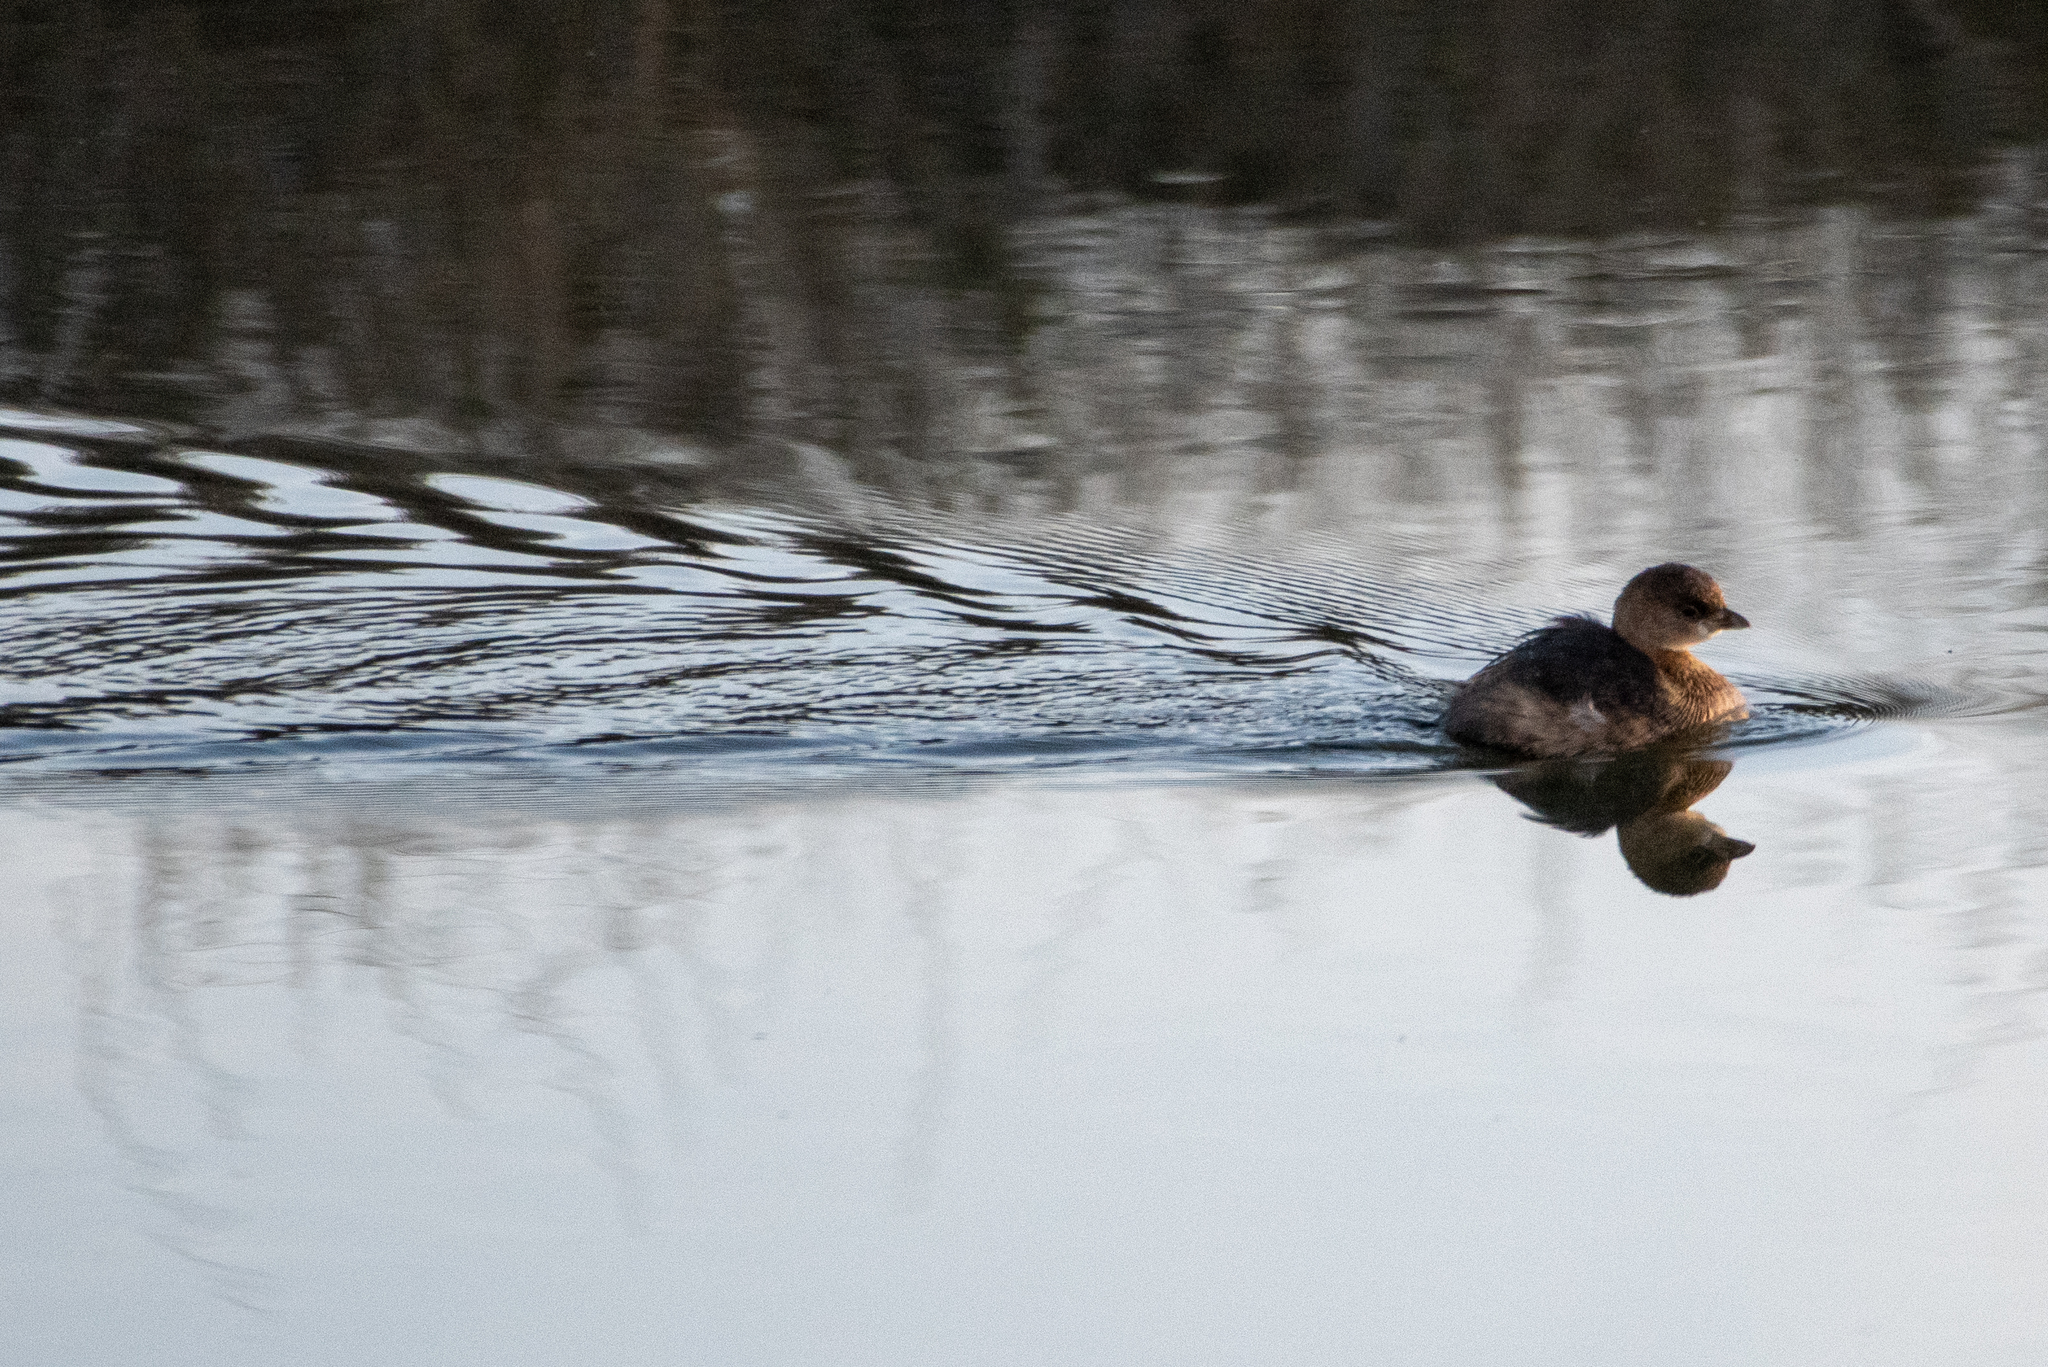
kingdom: Animalia
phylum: Chordata
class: Aves
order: Podicipediformes
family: Podicipedidae
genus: Podilymbus
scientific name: Podilymbus podiceps
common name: Pied-billed grebe
